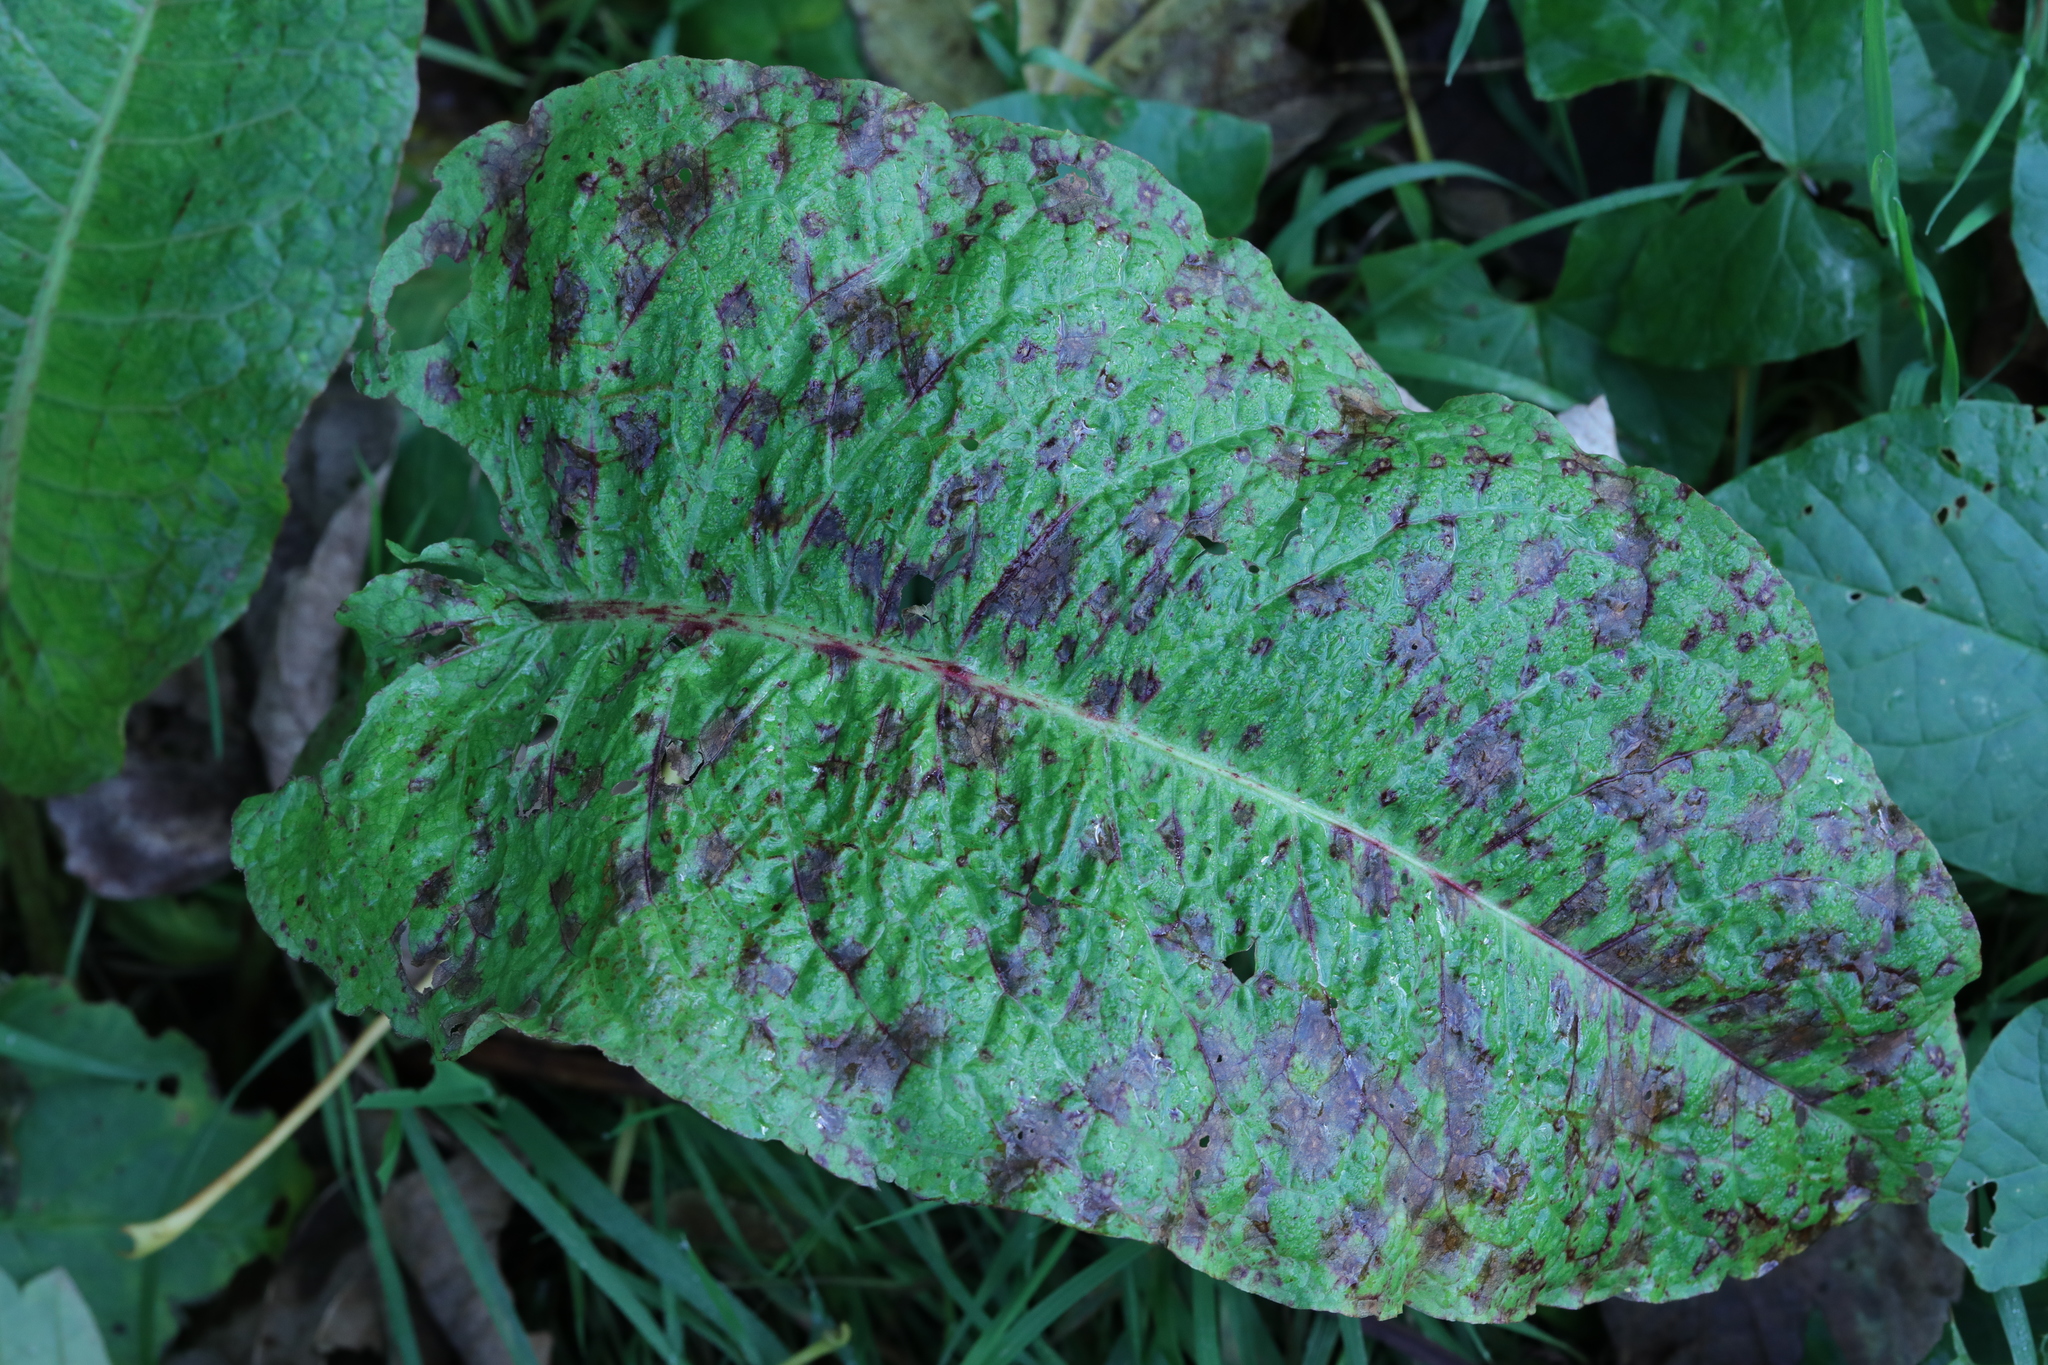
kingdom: Plantae
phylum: Tracheophyta
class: Magnoliopsida
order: Caryophyllales
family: Polygonaceae
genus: Rumex
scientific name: Rumex obtusifolius
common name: Bitter dock
